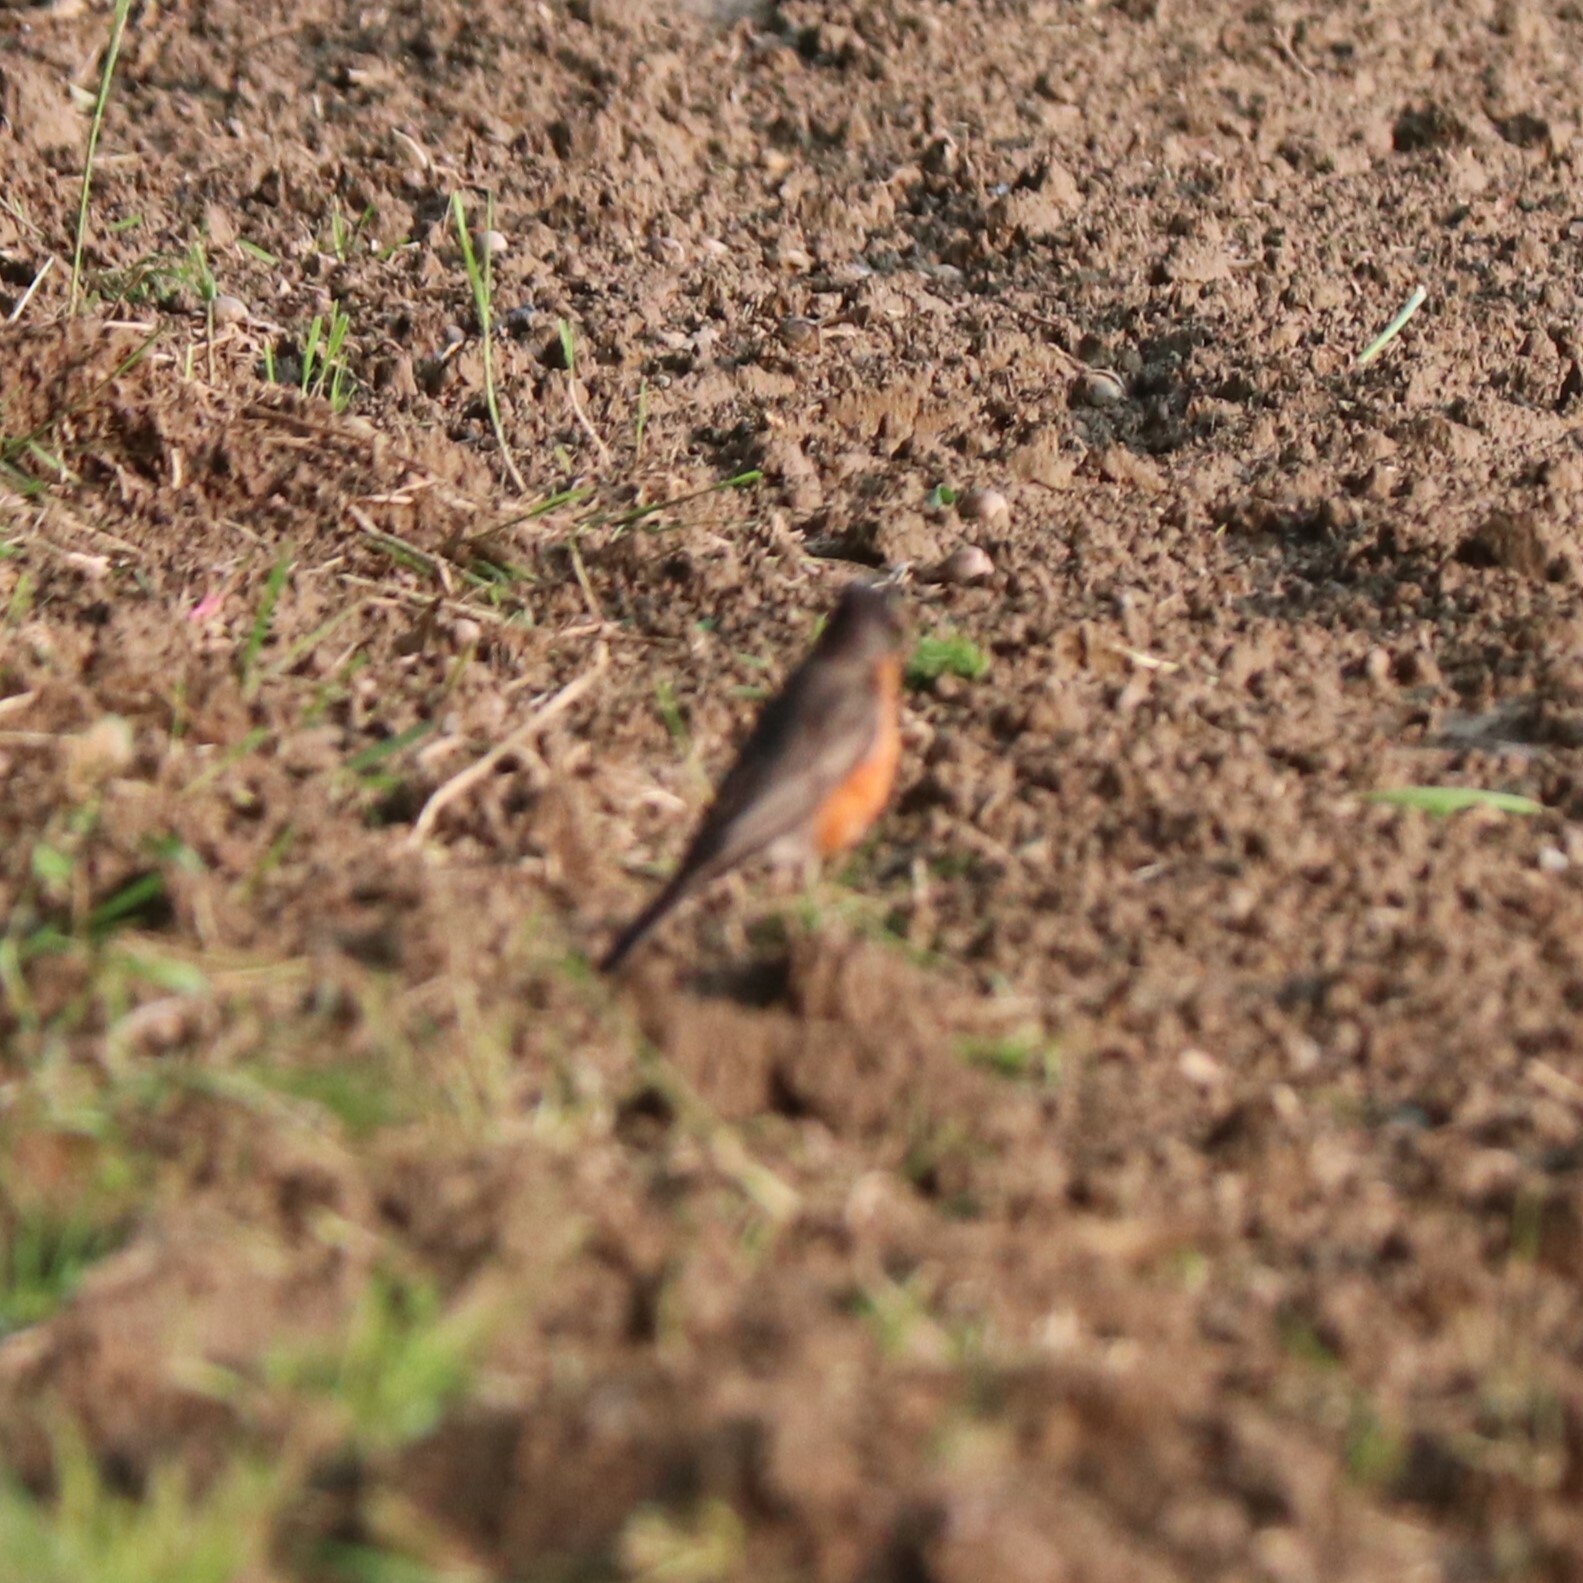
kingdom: Animalia
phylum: Chordata
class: Aves
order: Passeriformes
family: Turdidae
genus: Turdus
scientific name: Turdus migratorius
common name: American robin
